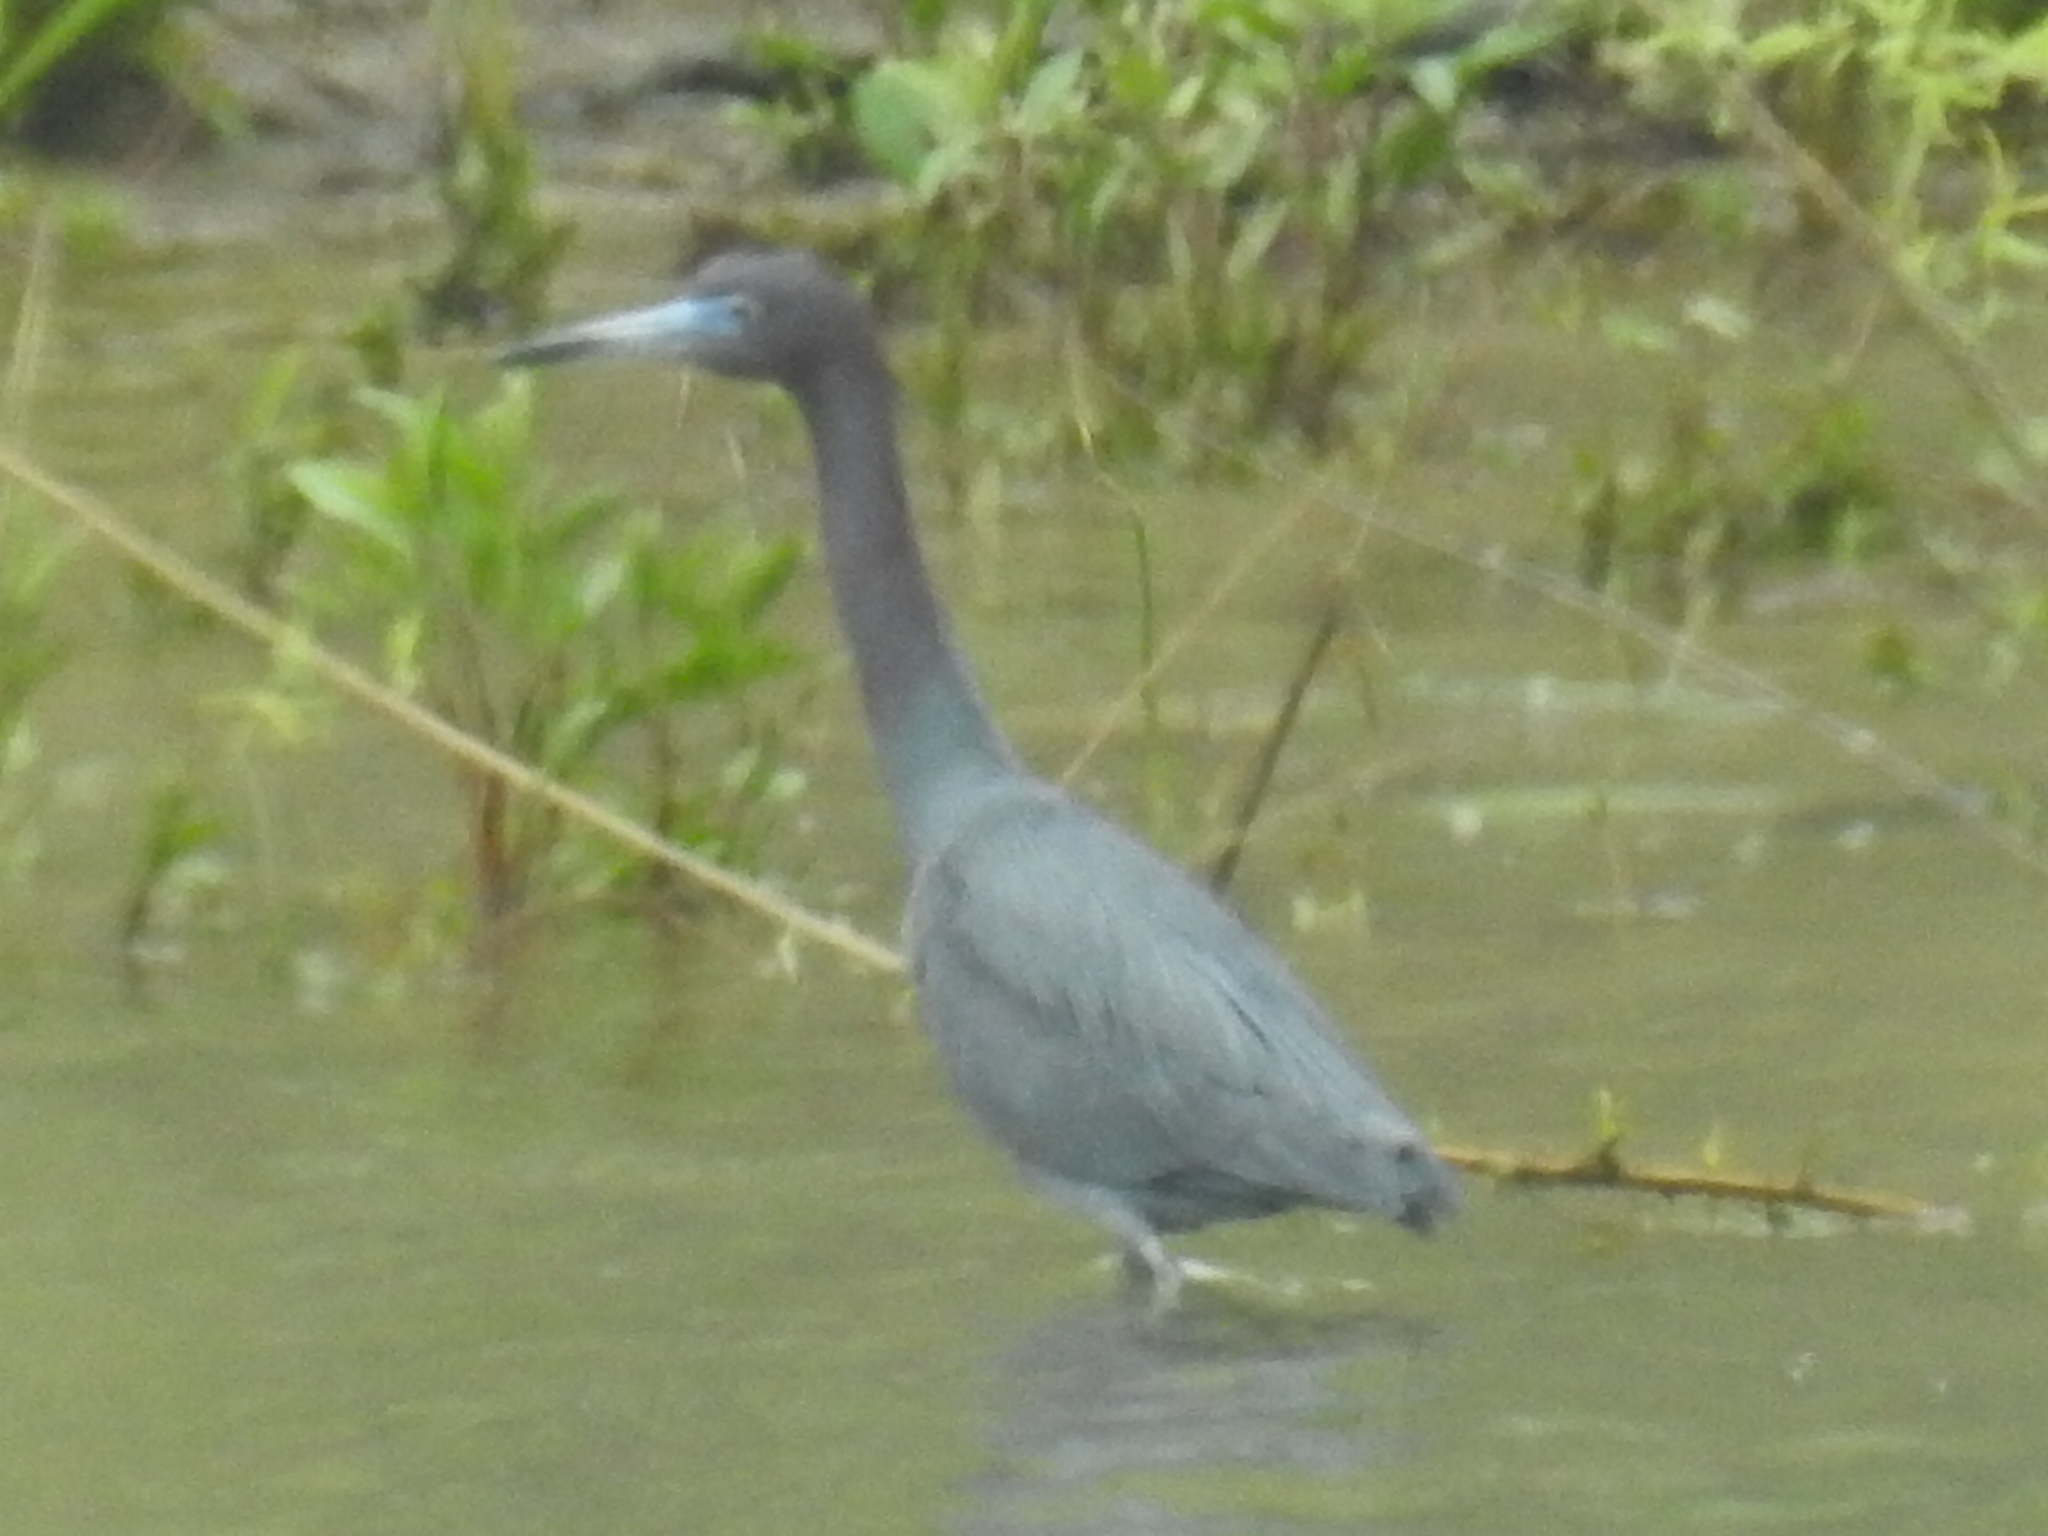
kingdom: Animalia
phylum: Chordata
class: Aves
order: Pelecaniformes
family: Ardeidae
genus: Egretta
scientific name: Egretta caerulea
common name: Little blue heron
